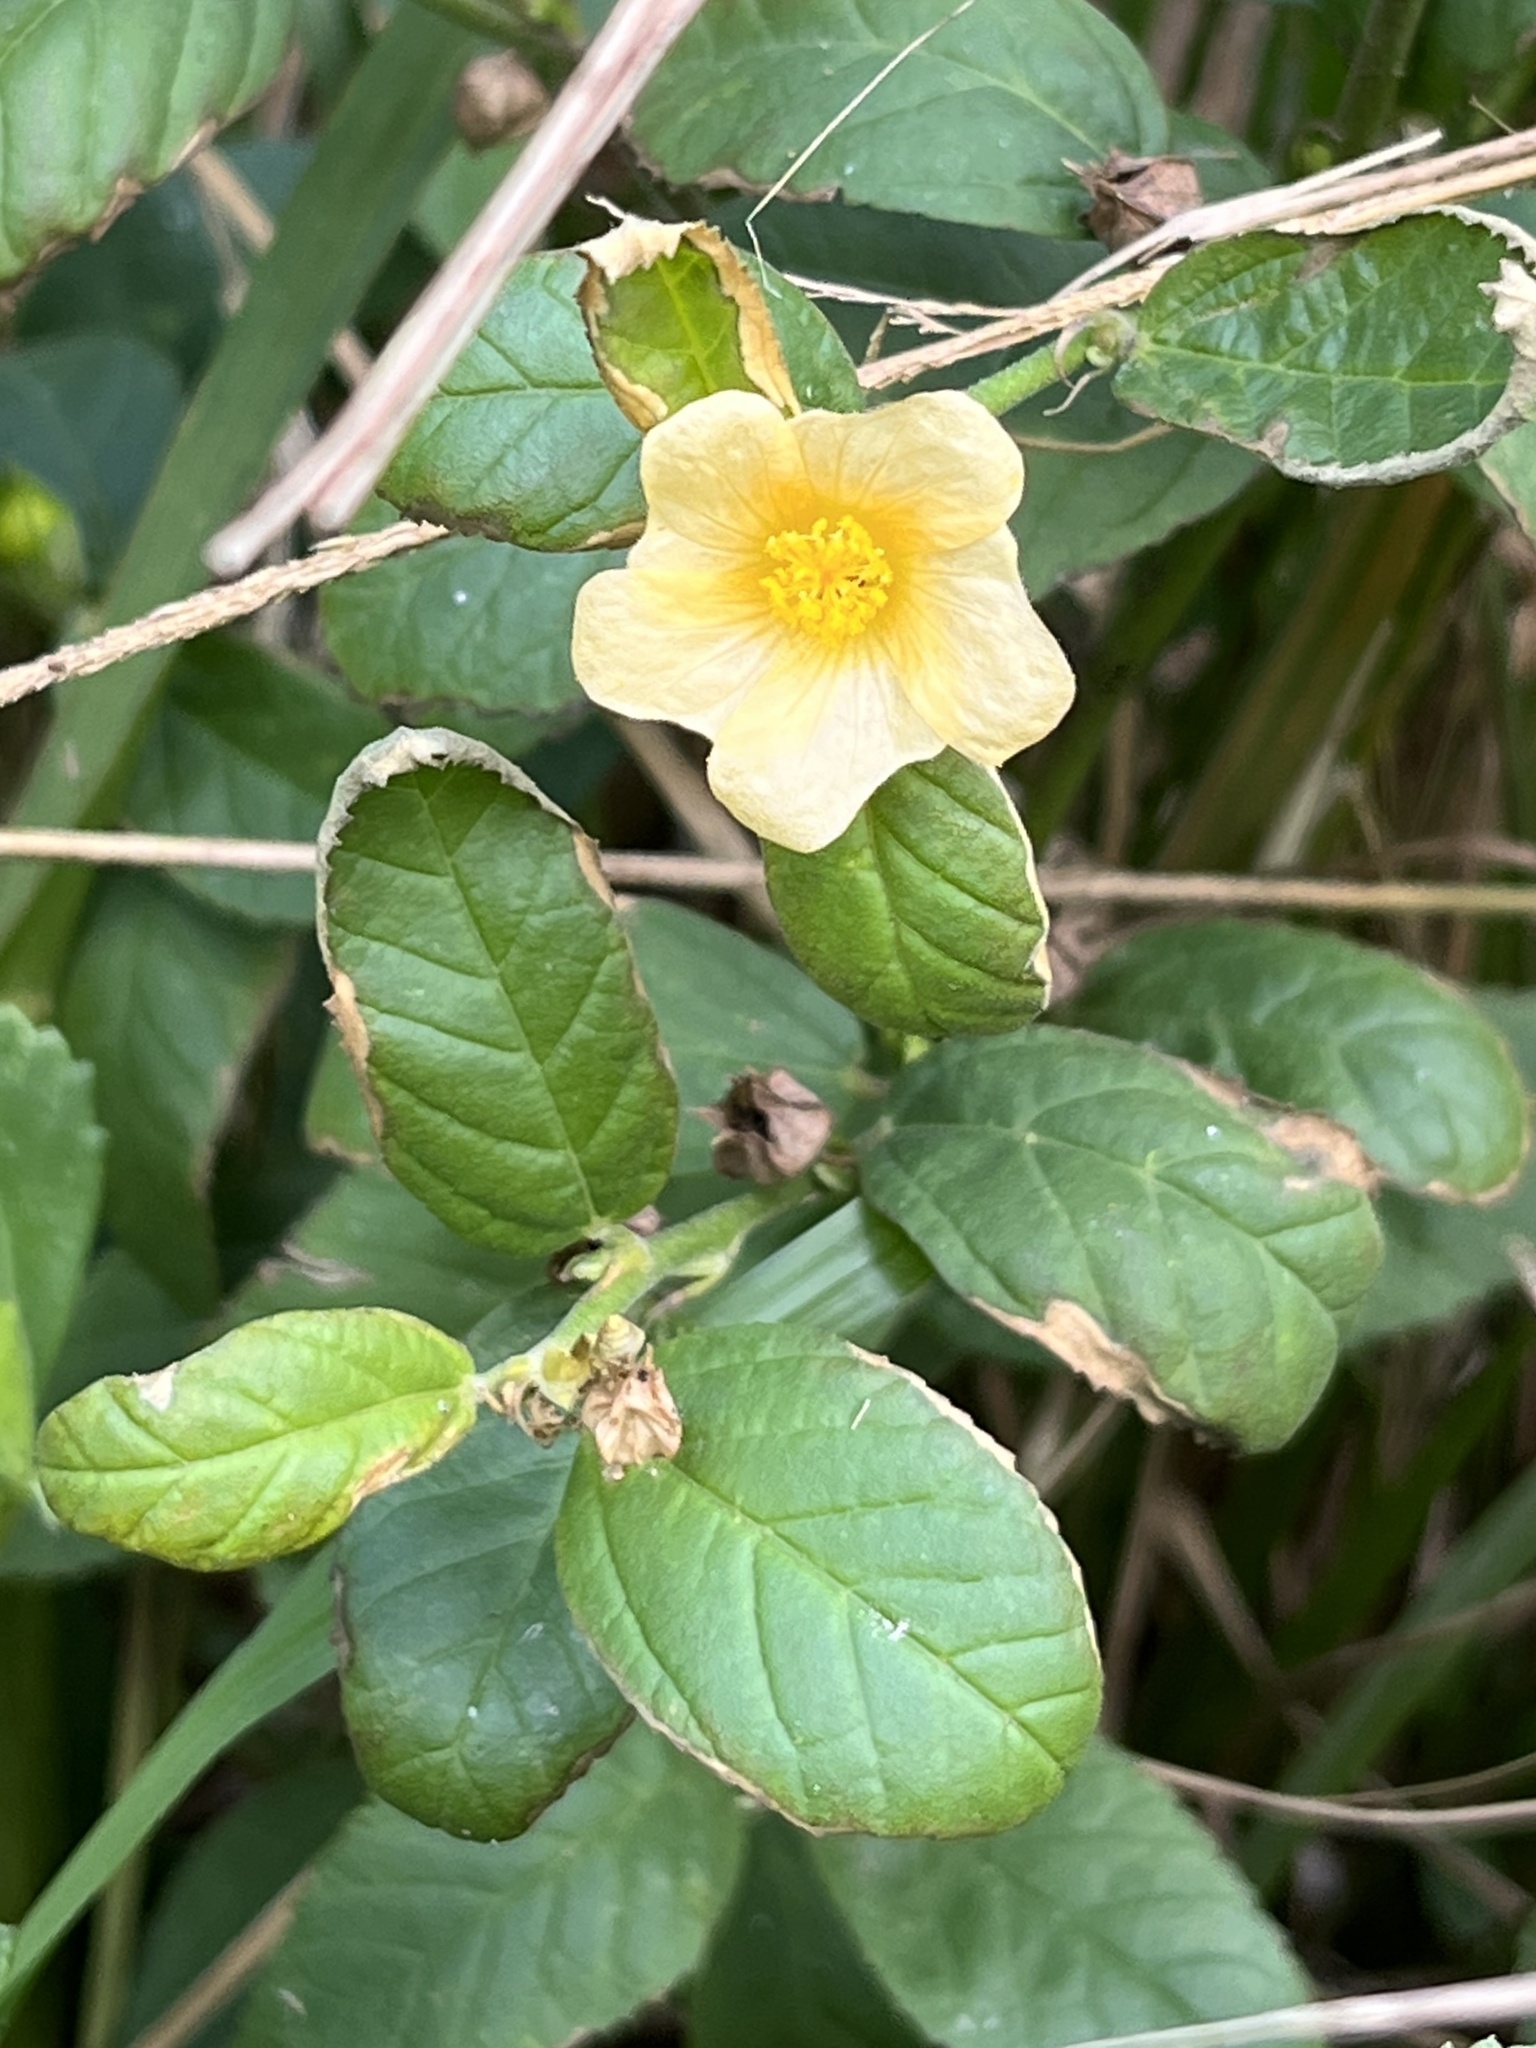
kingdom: Plantae
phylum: Tracheophyta
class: Magnoliopsida
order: Malvales
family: Malvaceae
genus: Sida
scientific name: Sida acuta
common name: Common wireweed
